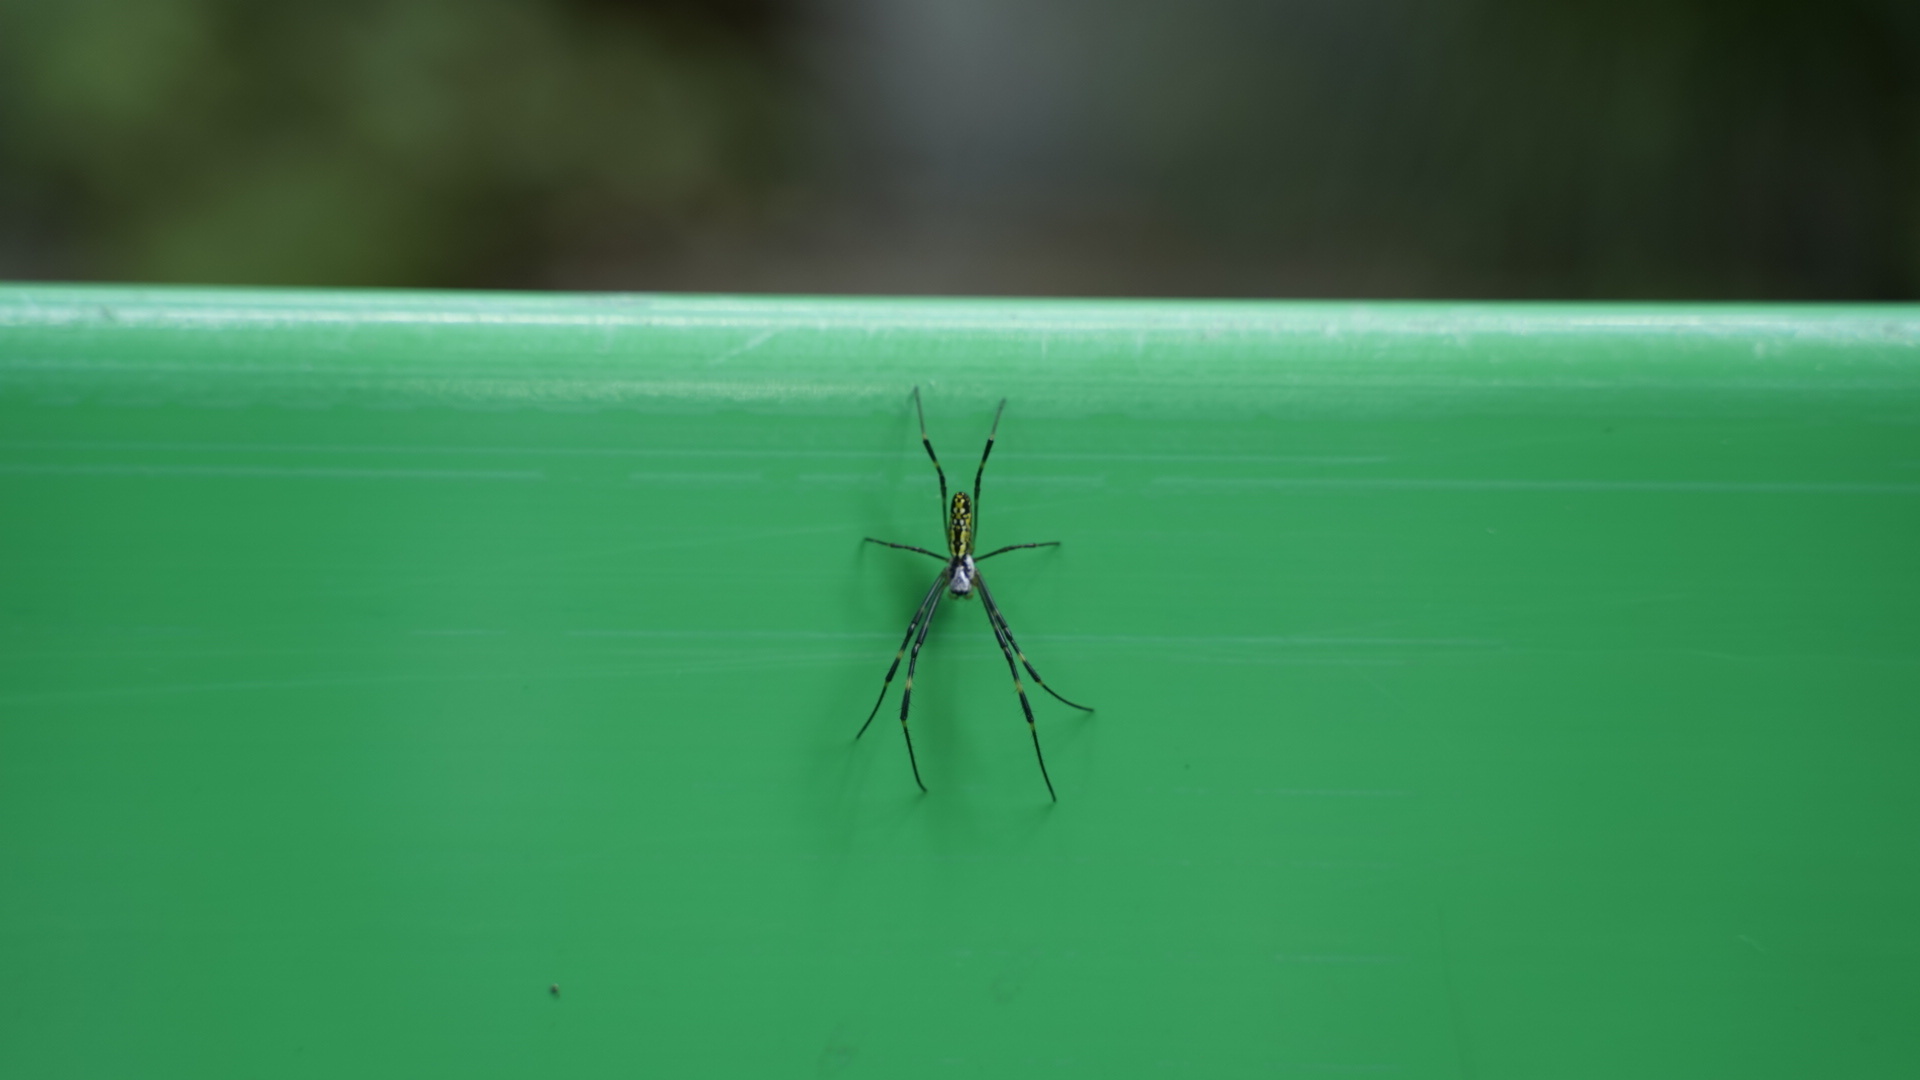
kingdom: Animalia
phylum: Arthropoda
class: Arachnida
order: Araneae
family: Araneidae
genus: Trichonephila
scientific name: Trichonephila clavata
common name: Jorō spider
